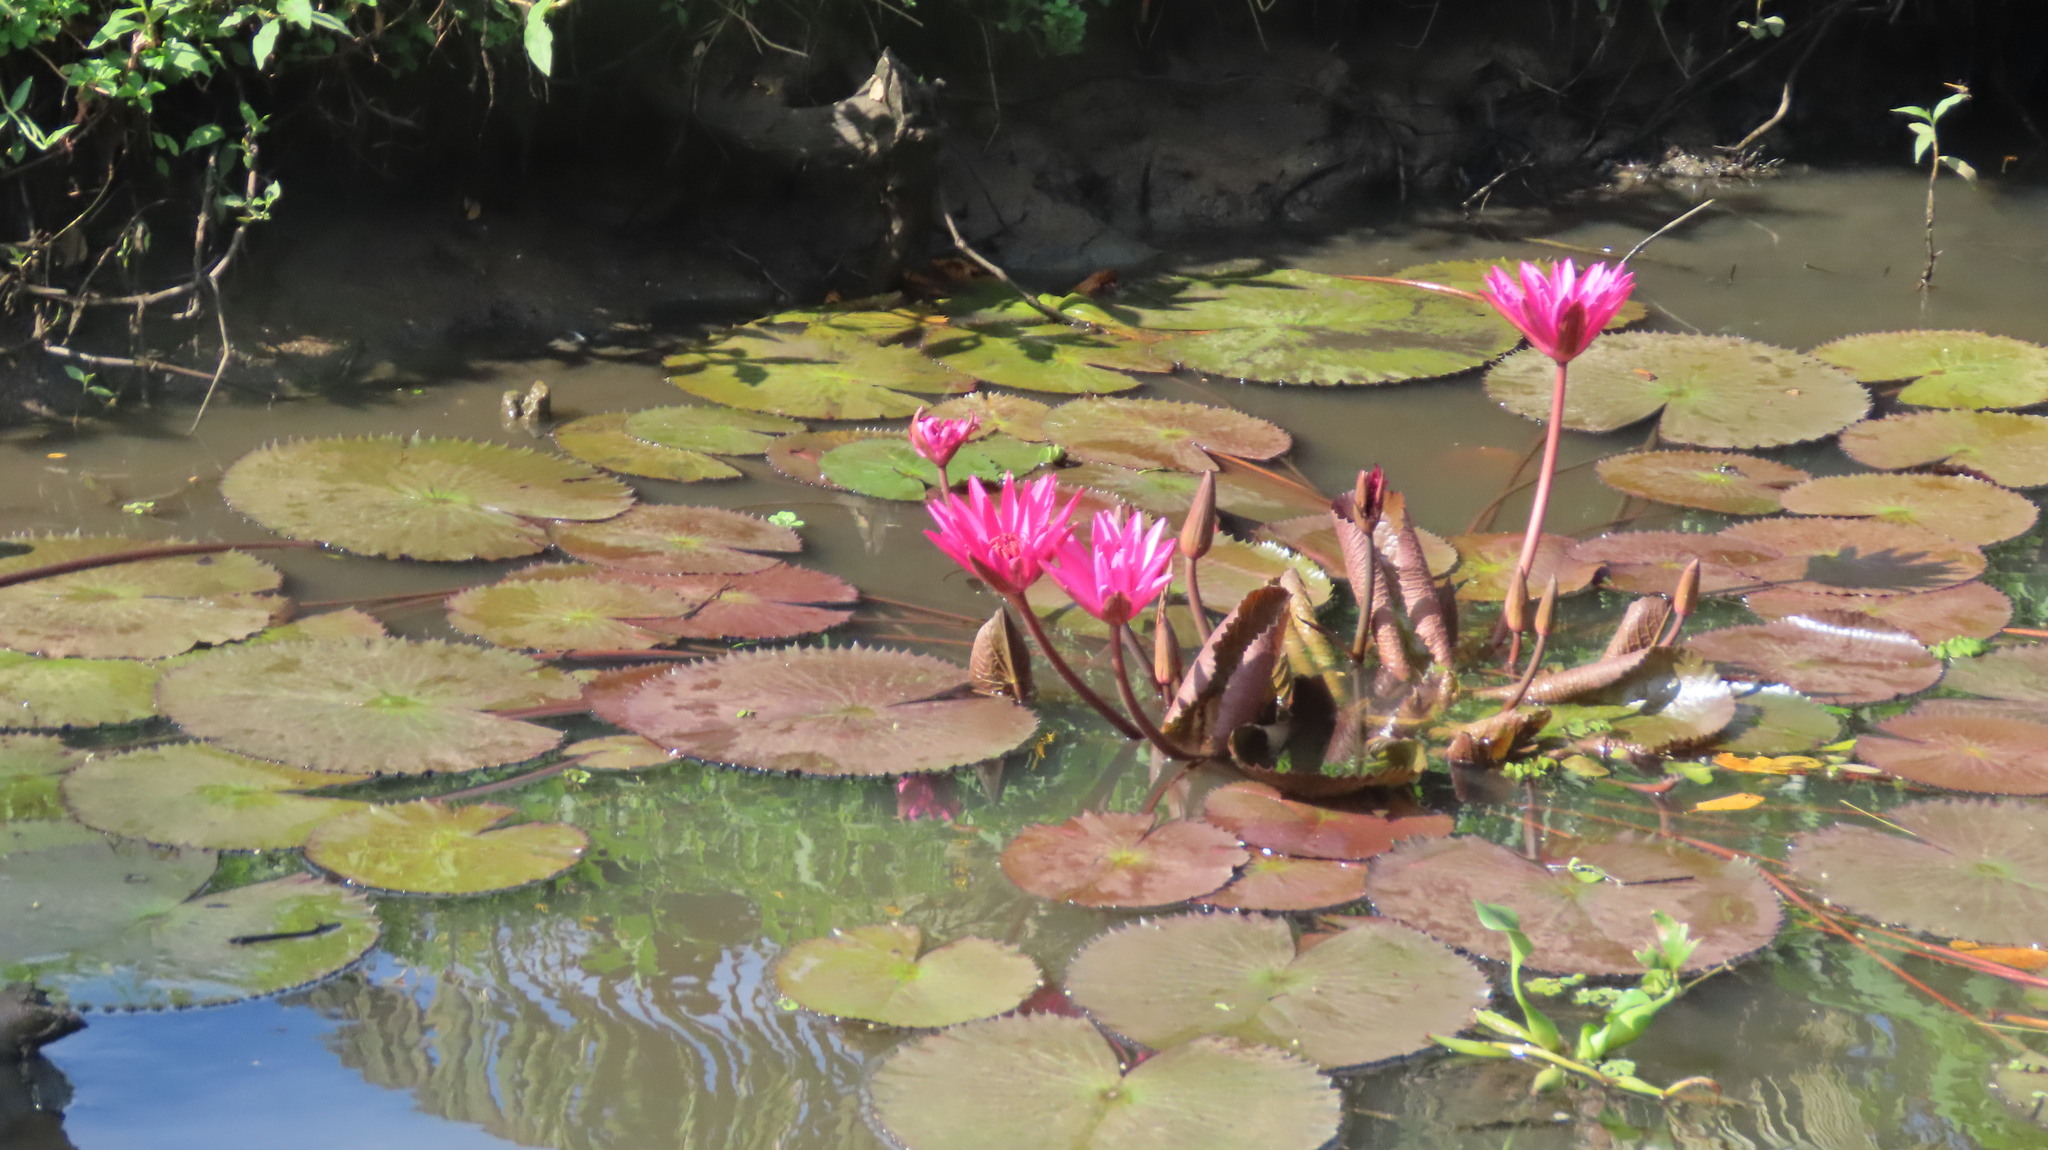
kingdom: Plantae
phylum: Tracheophyta
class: Magnoliopsida
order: Nymphaeales
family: Nymphaeaceae
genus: Nymphaea
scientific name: Nymphaea rubra
